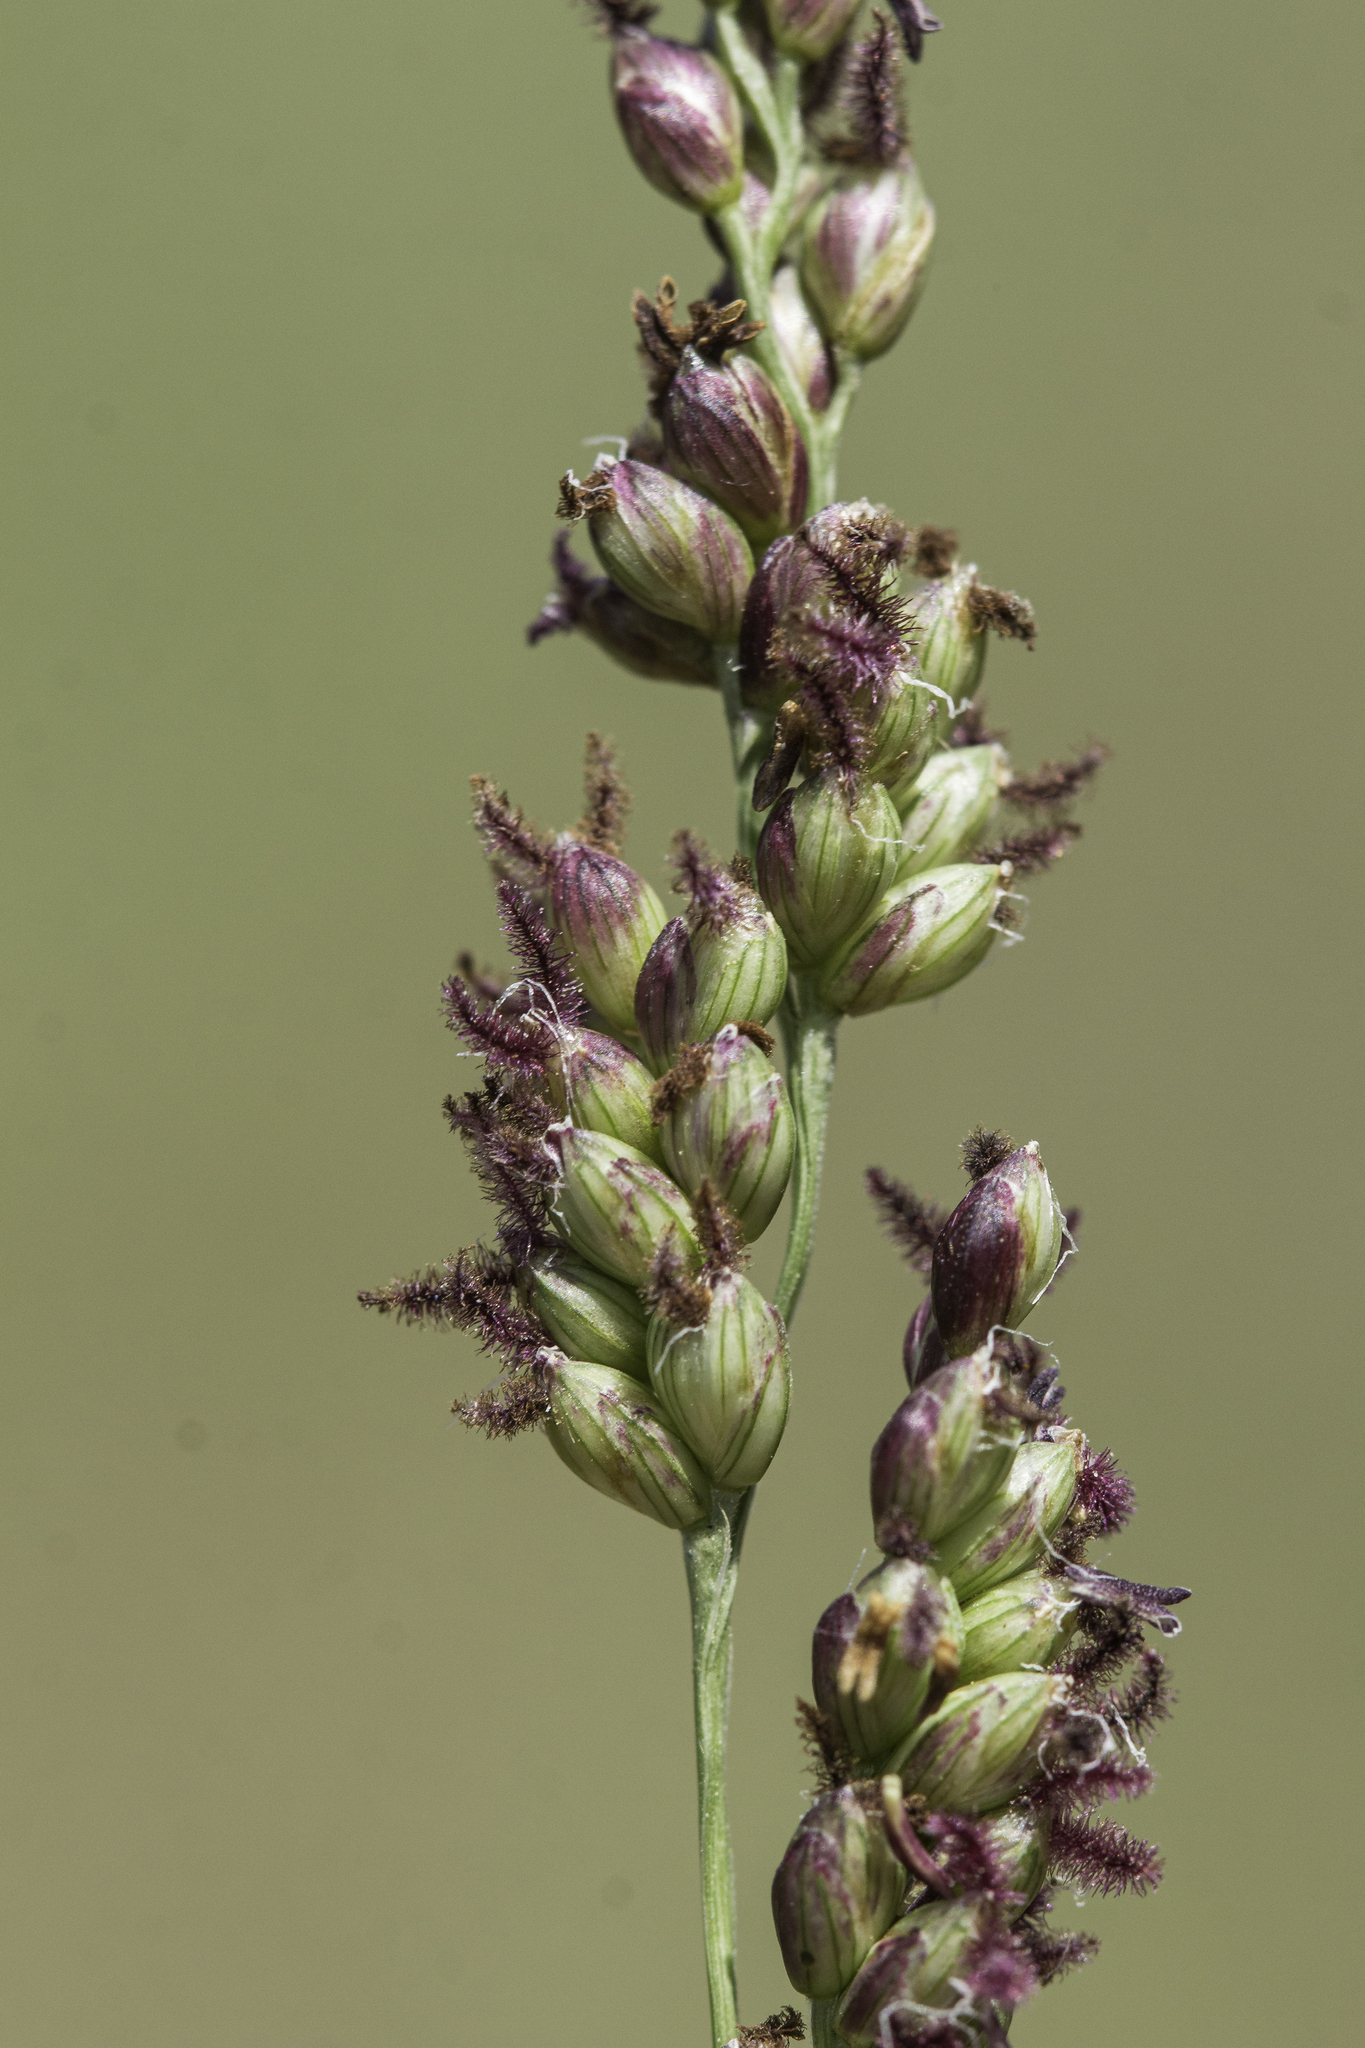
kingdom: Plantae
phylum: Tracheophyta
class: Liliopsida
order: Poales
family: Poaceae
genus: Hopia
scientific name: Hopia obtusa
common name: Vine-mesquite
